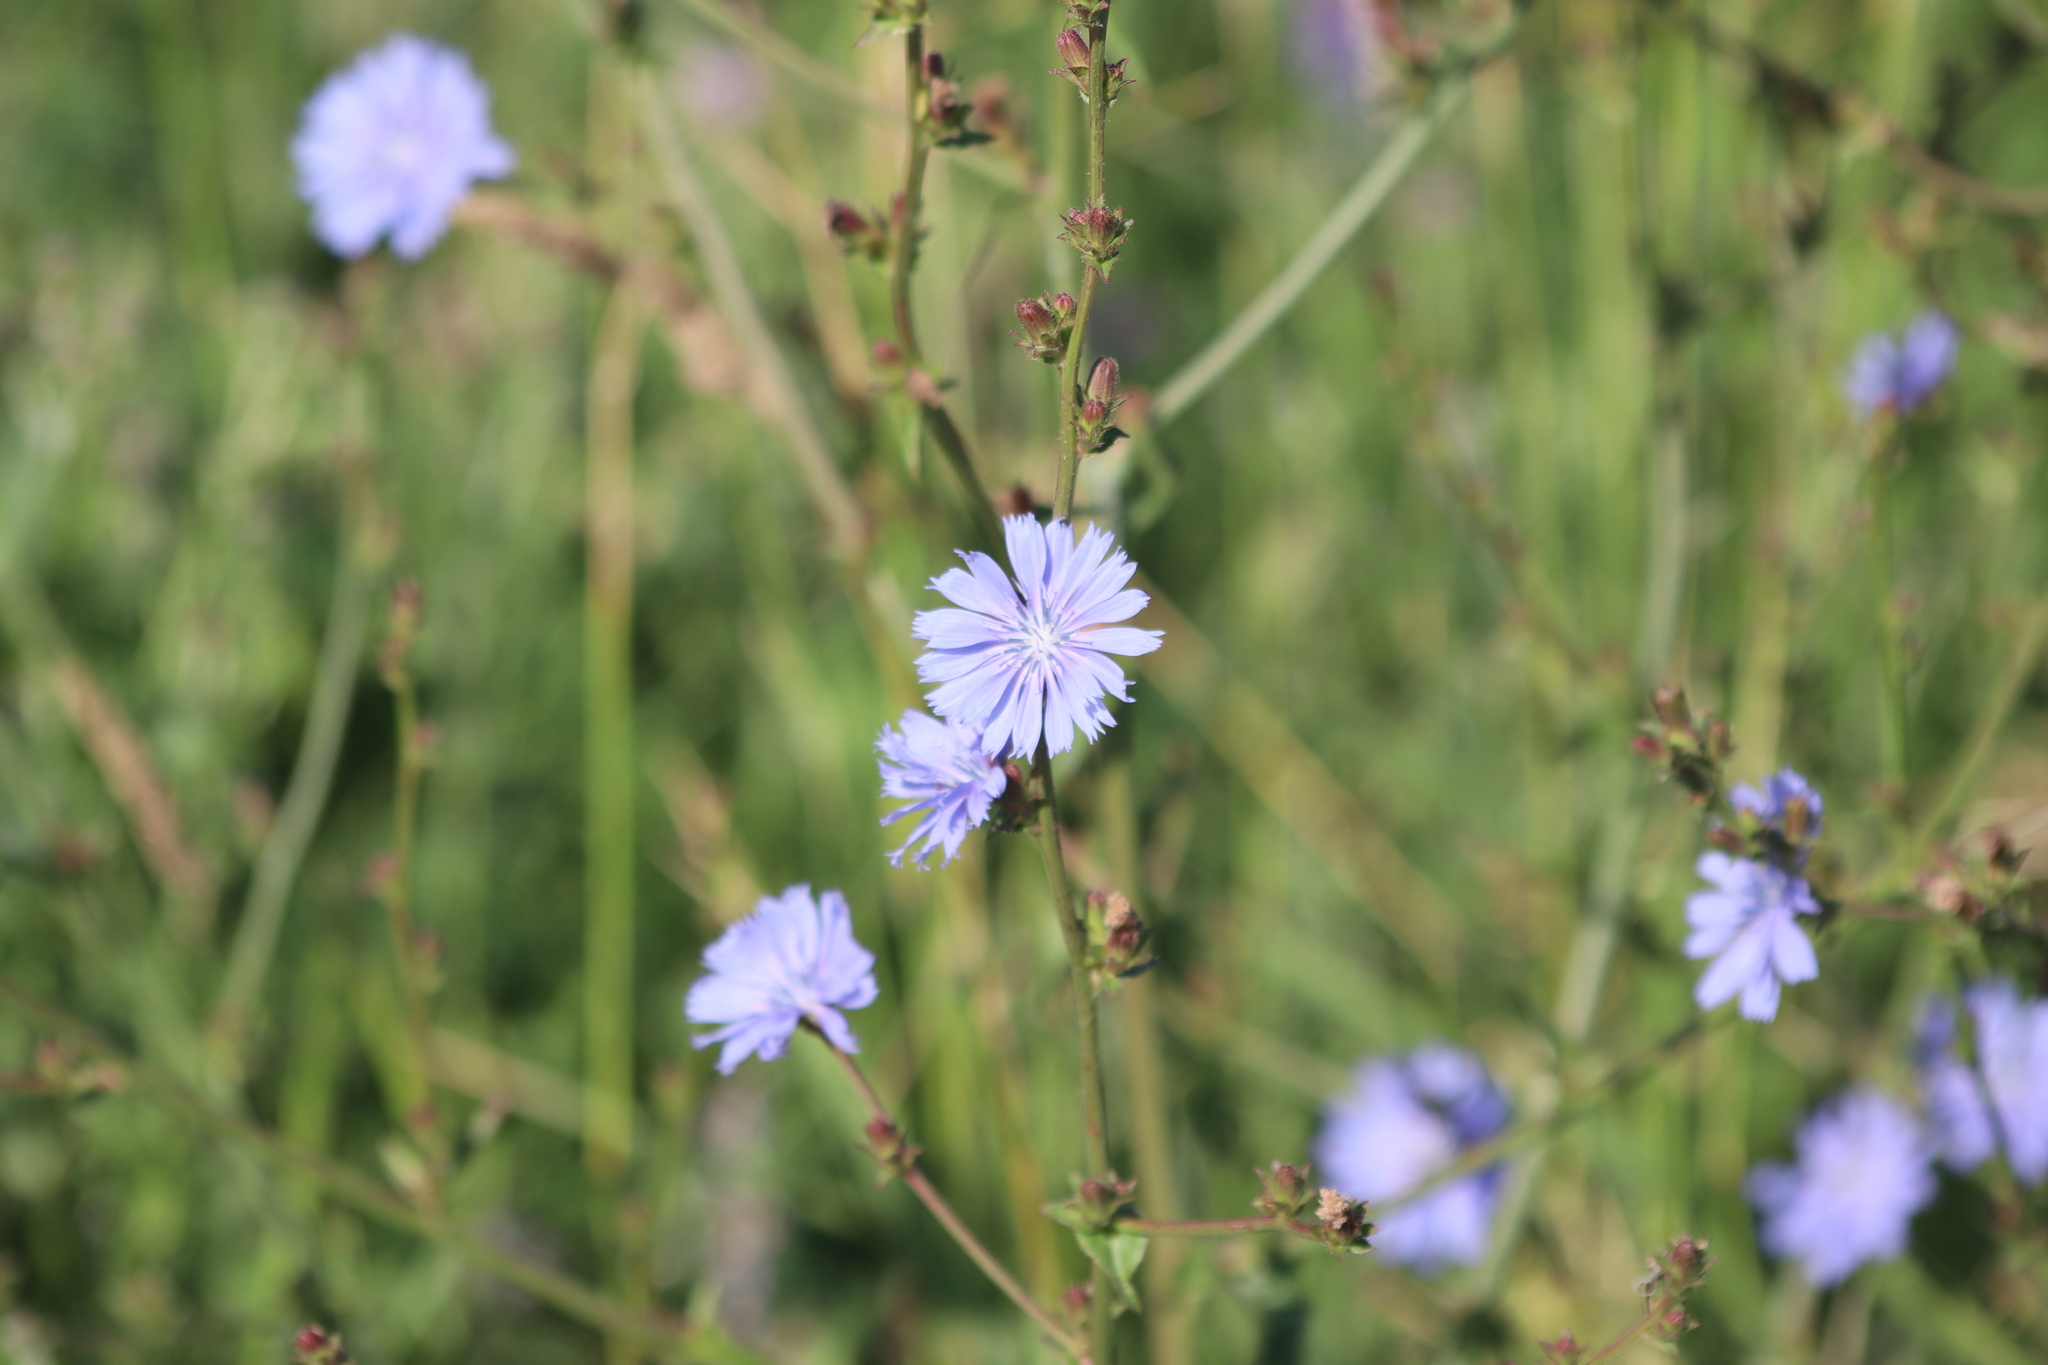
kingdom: Plantae
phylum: Tracheophyta
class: Magnoliopsida
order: Asterales
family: Asteraceae
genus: Cichorium
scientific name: Cichorium intybus
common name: Chicory
